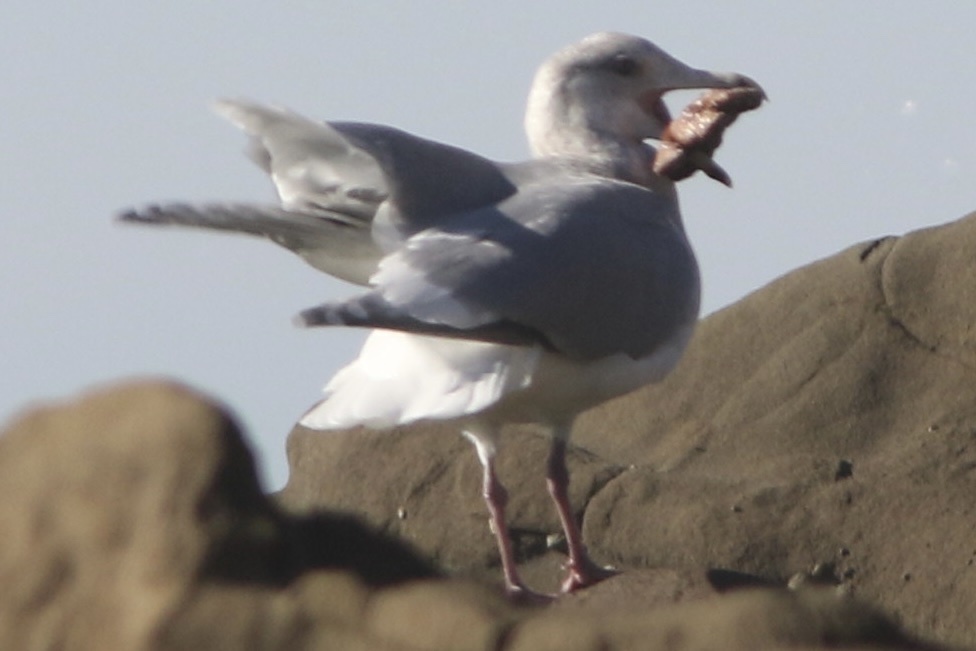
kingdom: Animalia
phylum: Echinodermata
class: Asteroidea
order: Forcipulatida
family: Asteriidae
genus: Pisaster
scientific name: Pisaster ochraceus
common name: Ochre stars
